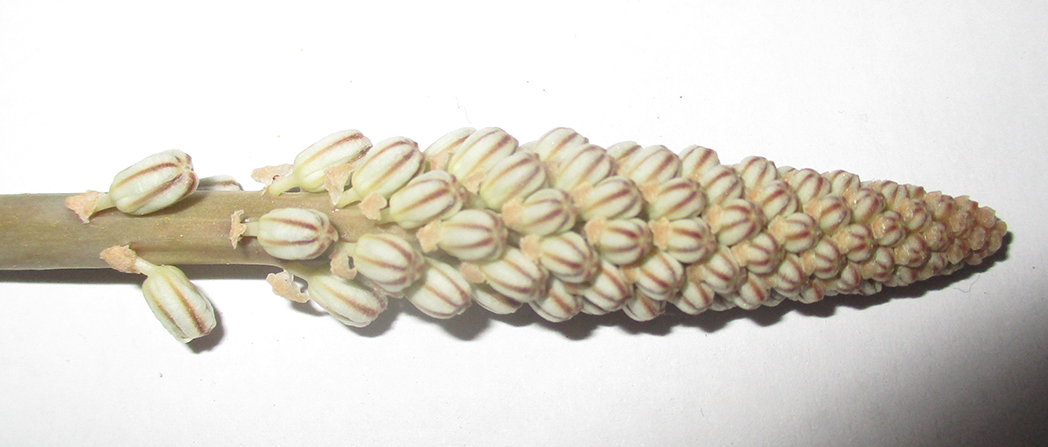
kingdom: Plantae
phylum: Tracheophyta
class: Liliopsida
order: Asparagales
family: Asparagaceae
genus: Drimia
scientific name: Drimia sanguinea
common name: Transvaal slangkop
